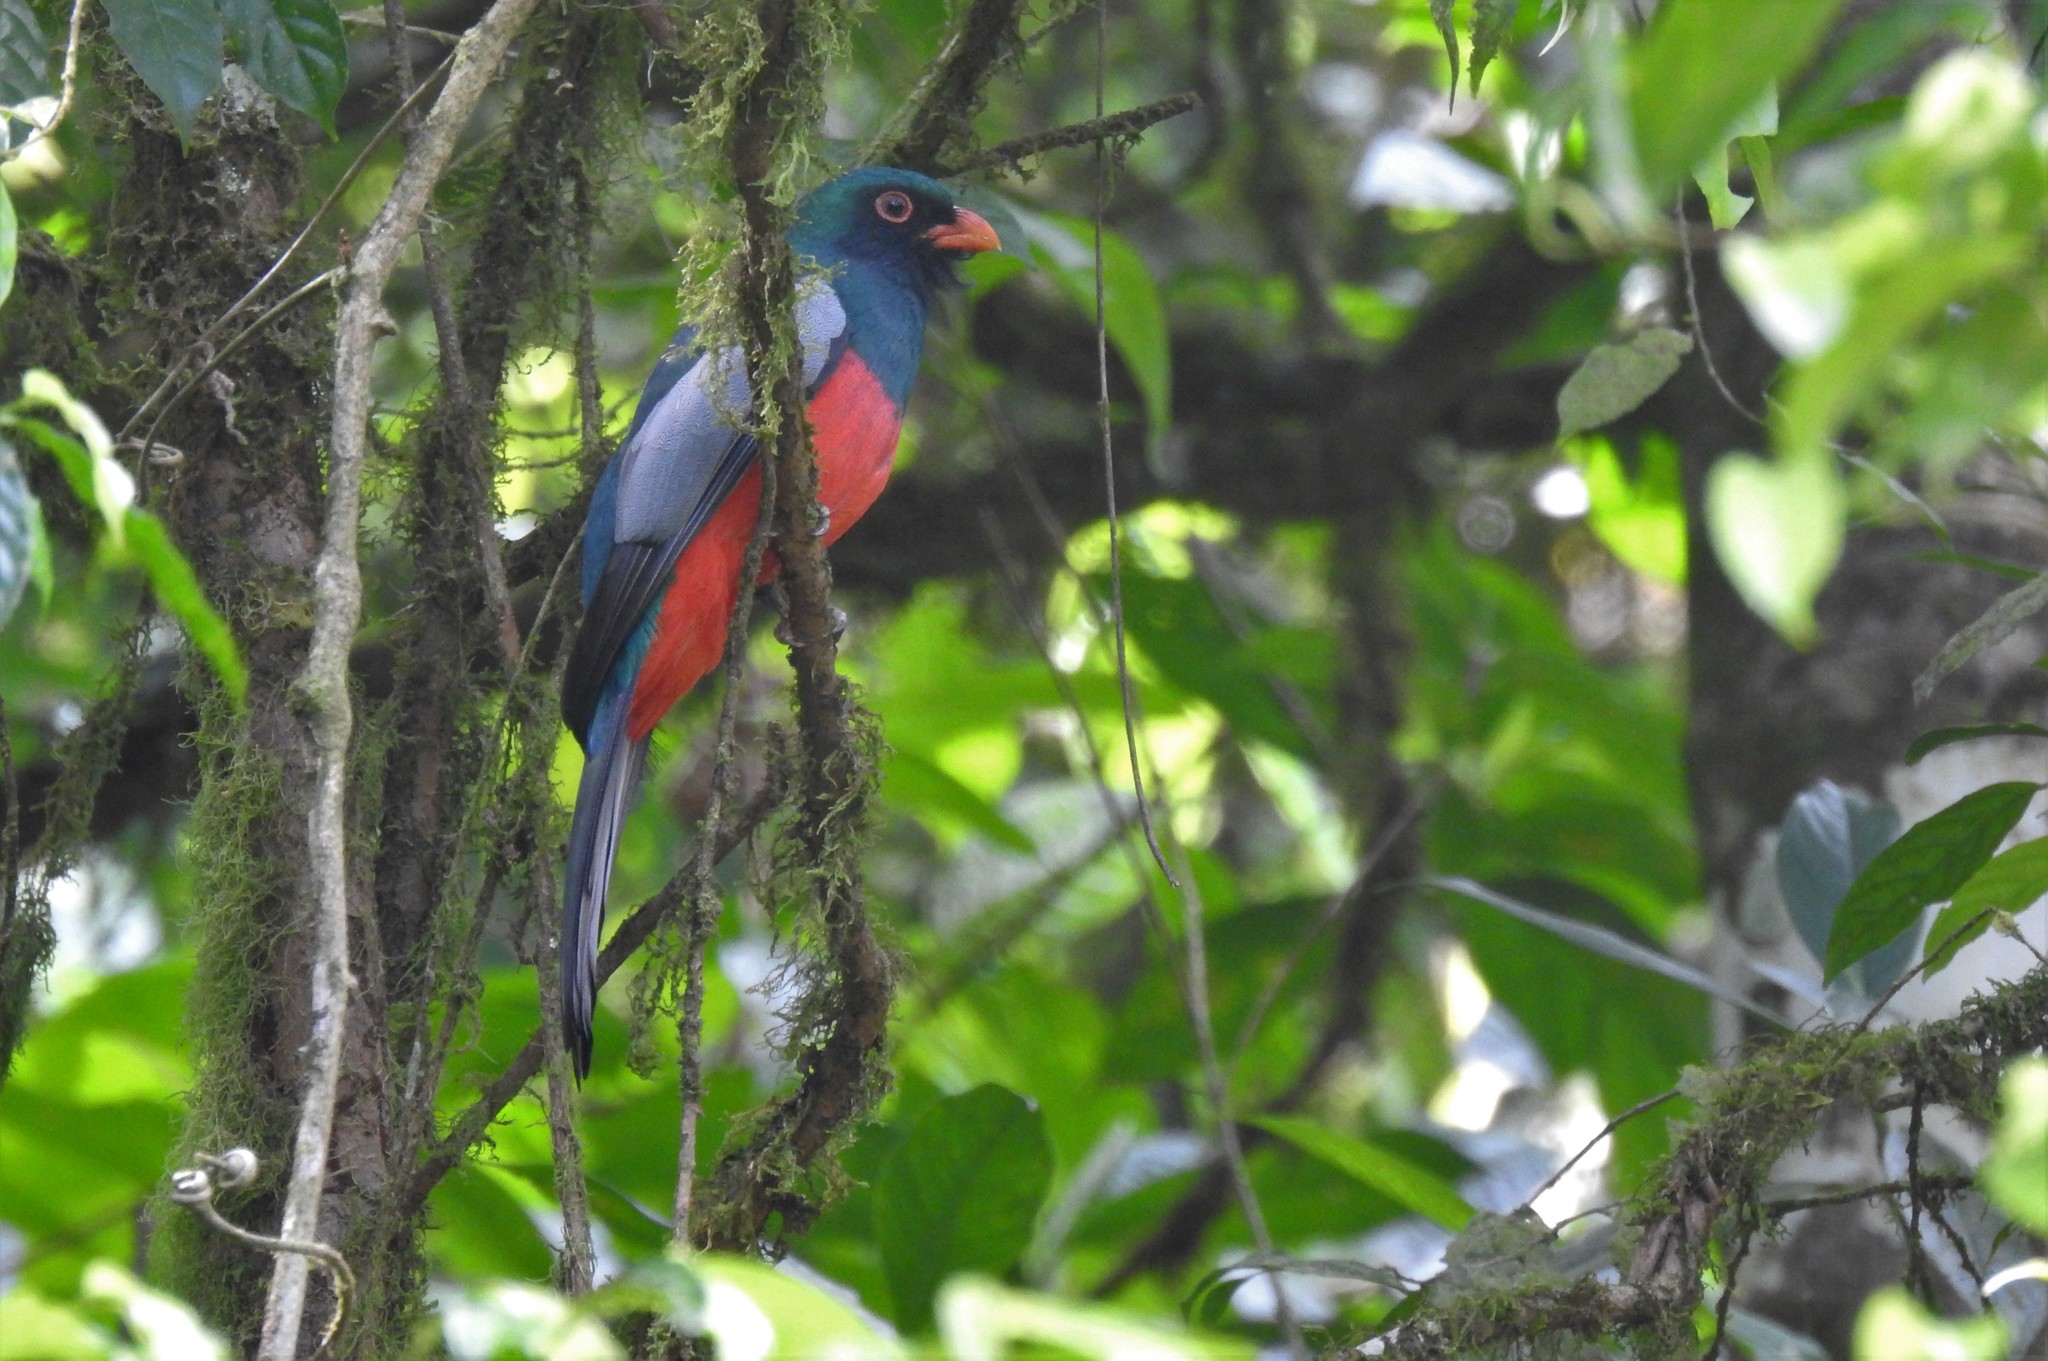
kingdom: Animalia
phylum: Chordata
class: Aves
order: Trogoniformes
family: Trogonidae
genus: Trogon
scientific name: Trogon massena
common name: Slaty-tailed trogon
